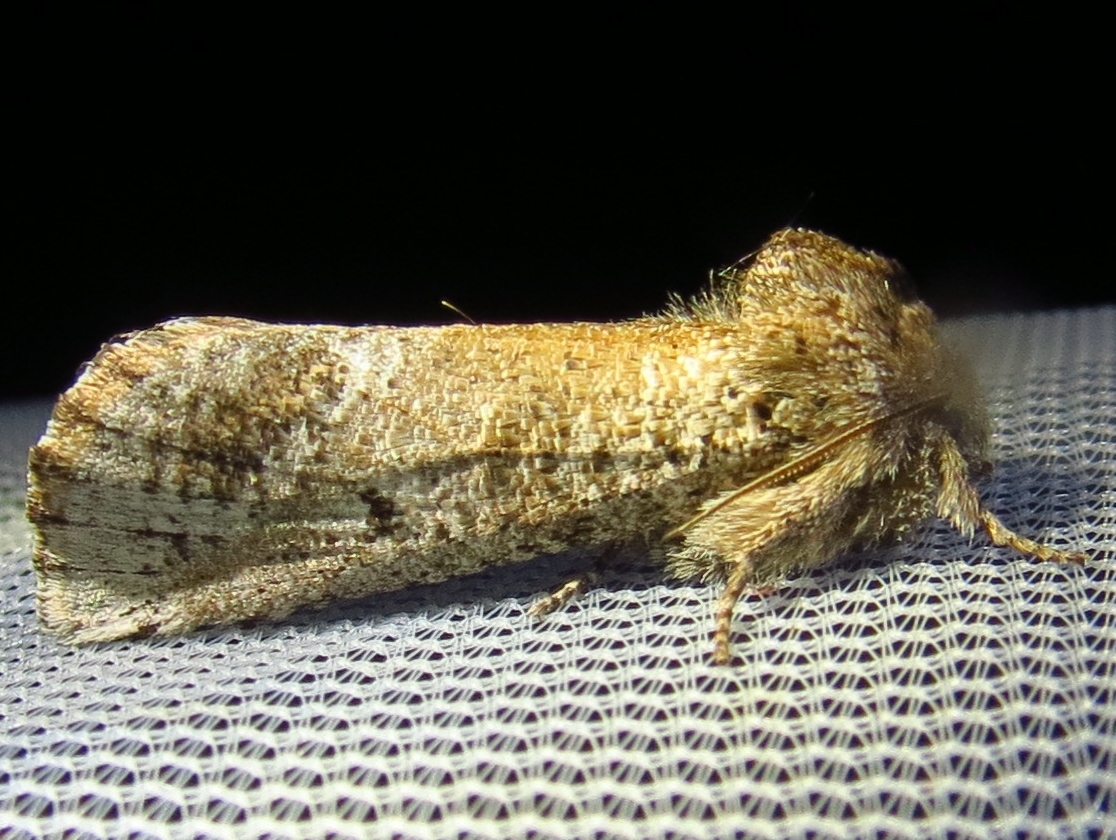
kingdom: Animalia
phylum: Arthropoda
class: Insecta
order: Lepidoptera
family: Erebidae
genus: Aon
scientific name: Aon noctuiformis
